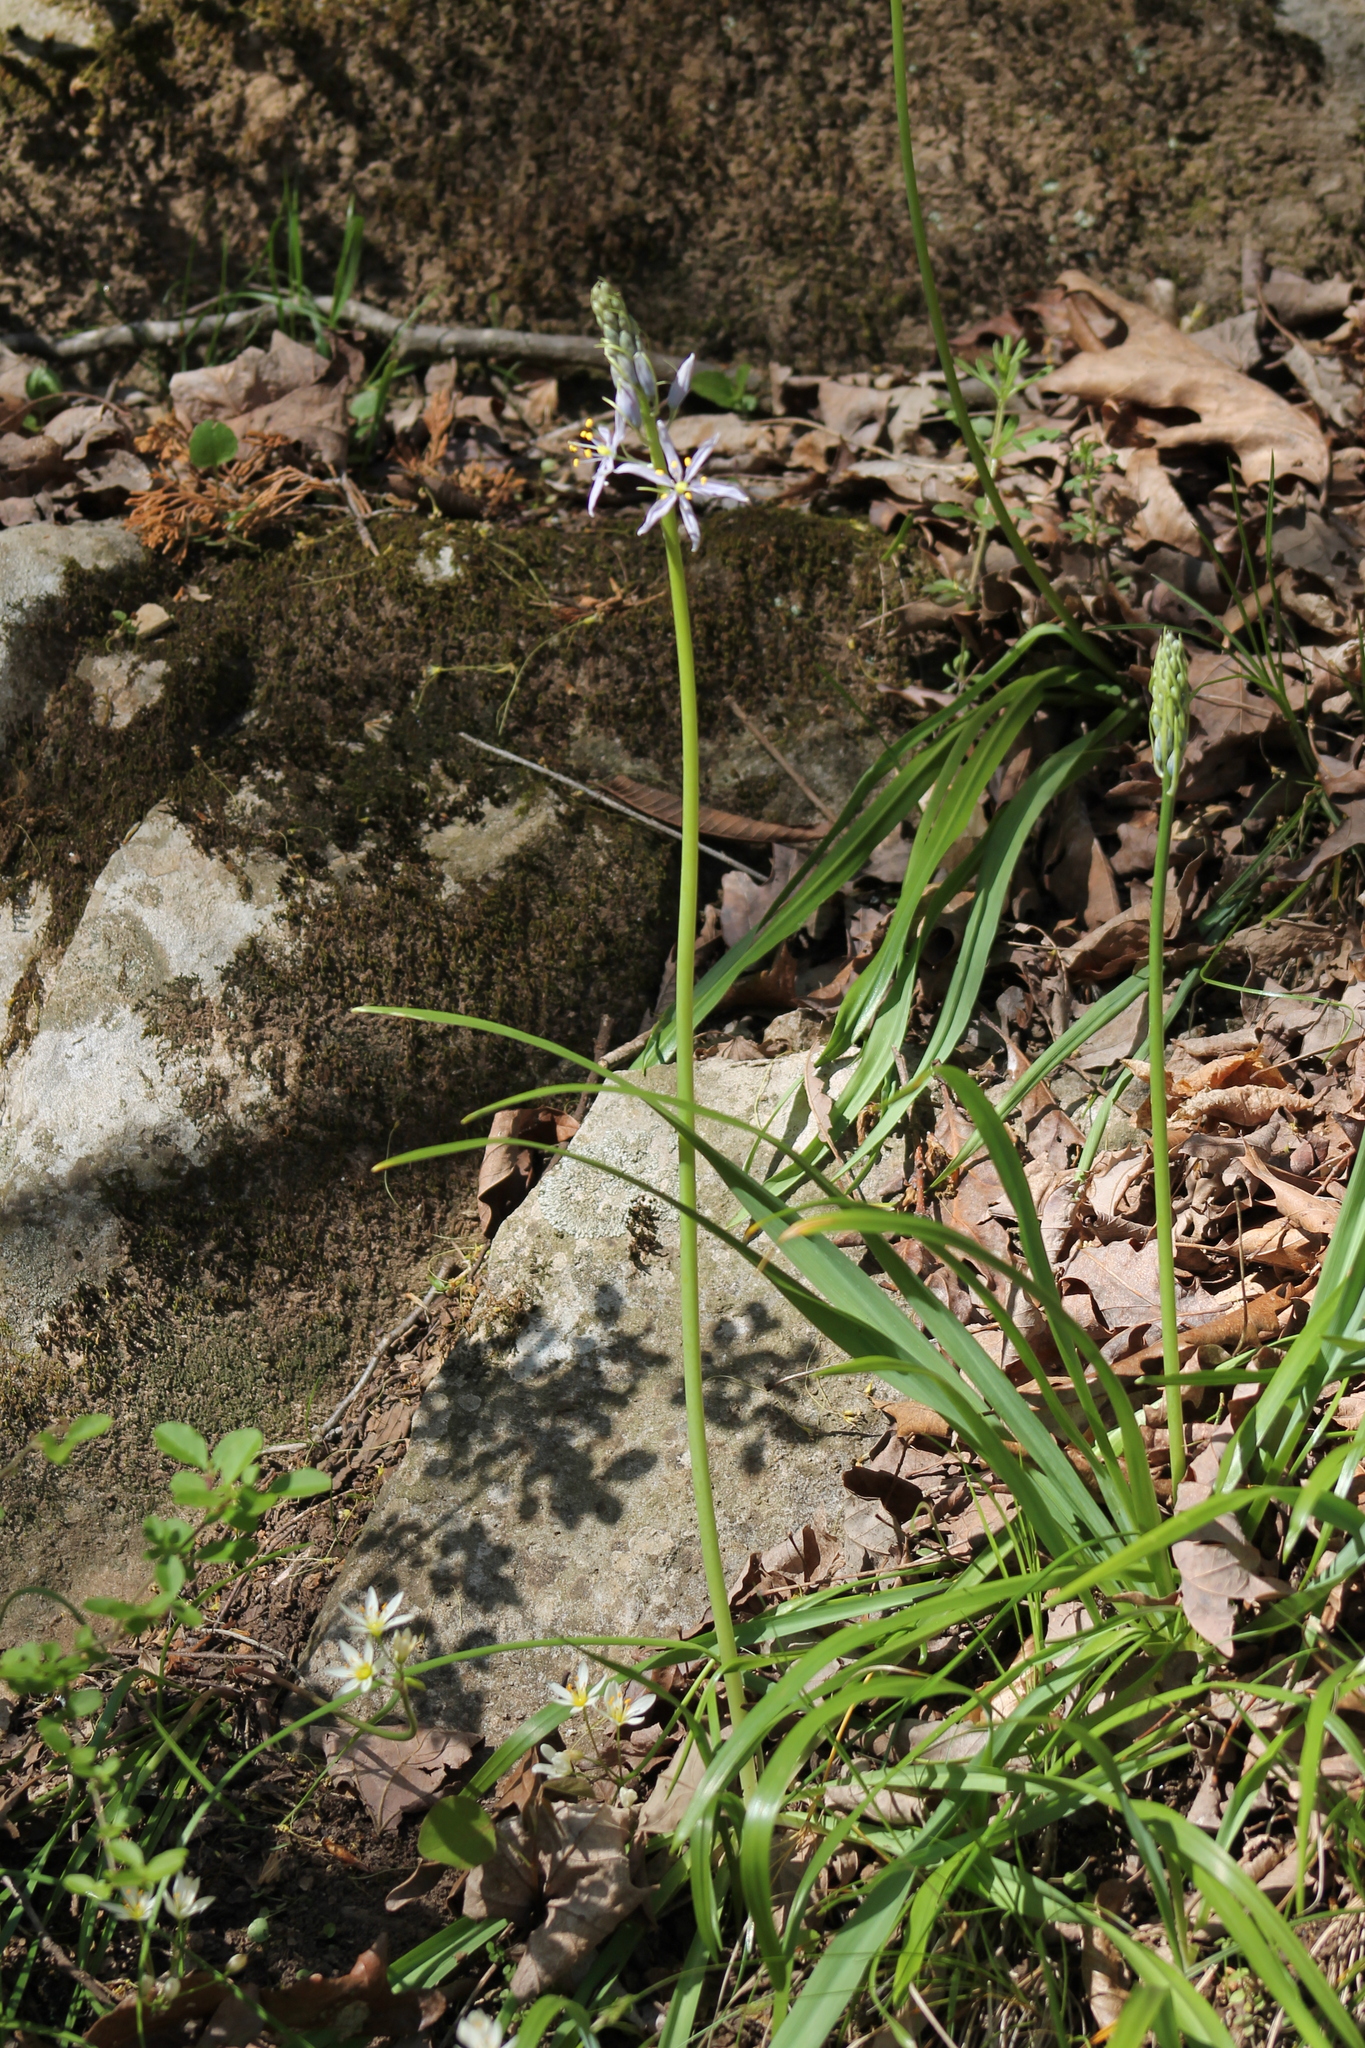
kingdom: Plantae
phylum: Tracheophyta
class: Liliopsida
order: Asparagales
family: Asparagaceae
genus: Camassia
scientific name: Camassia scilloides
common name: Wild hyacinth
